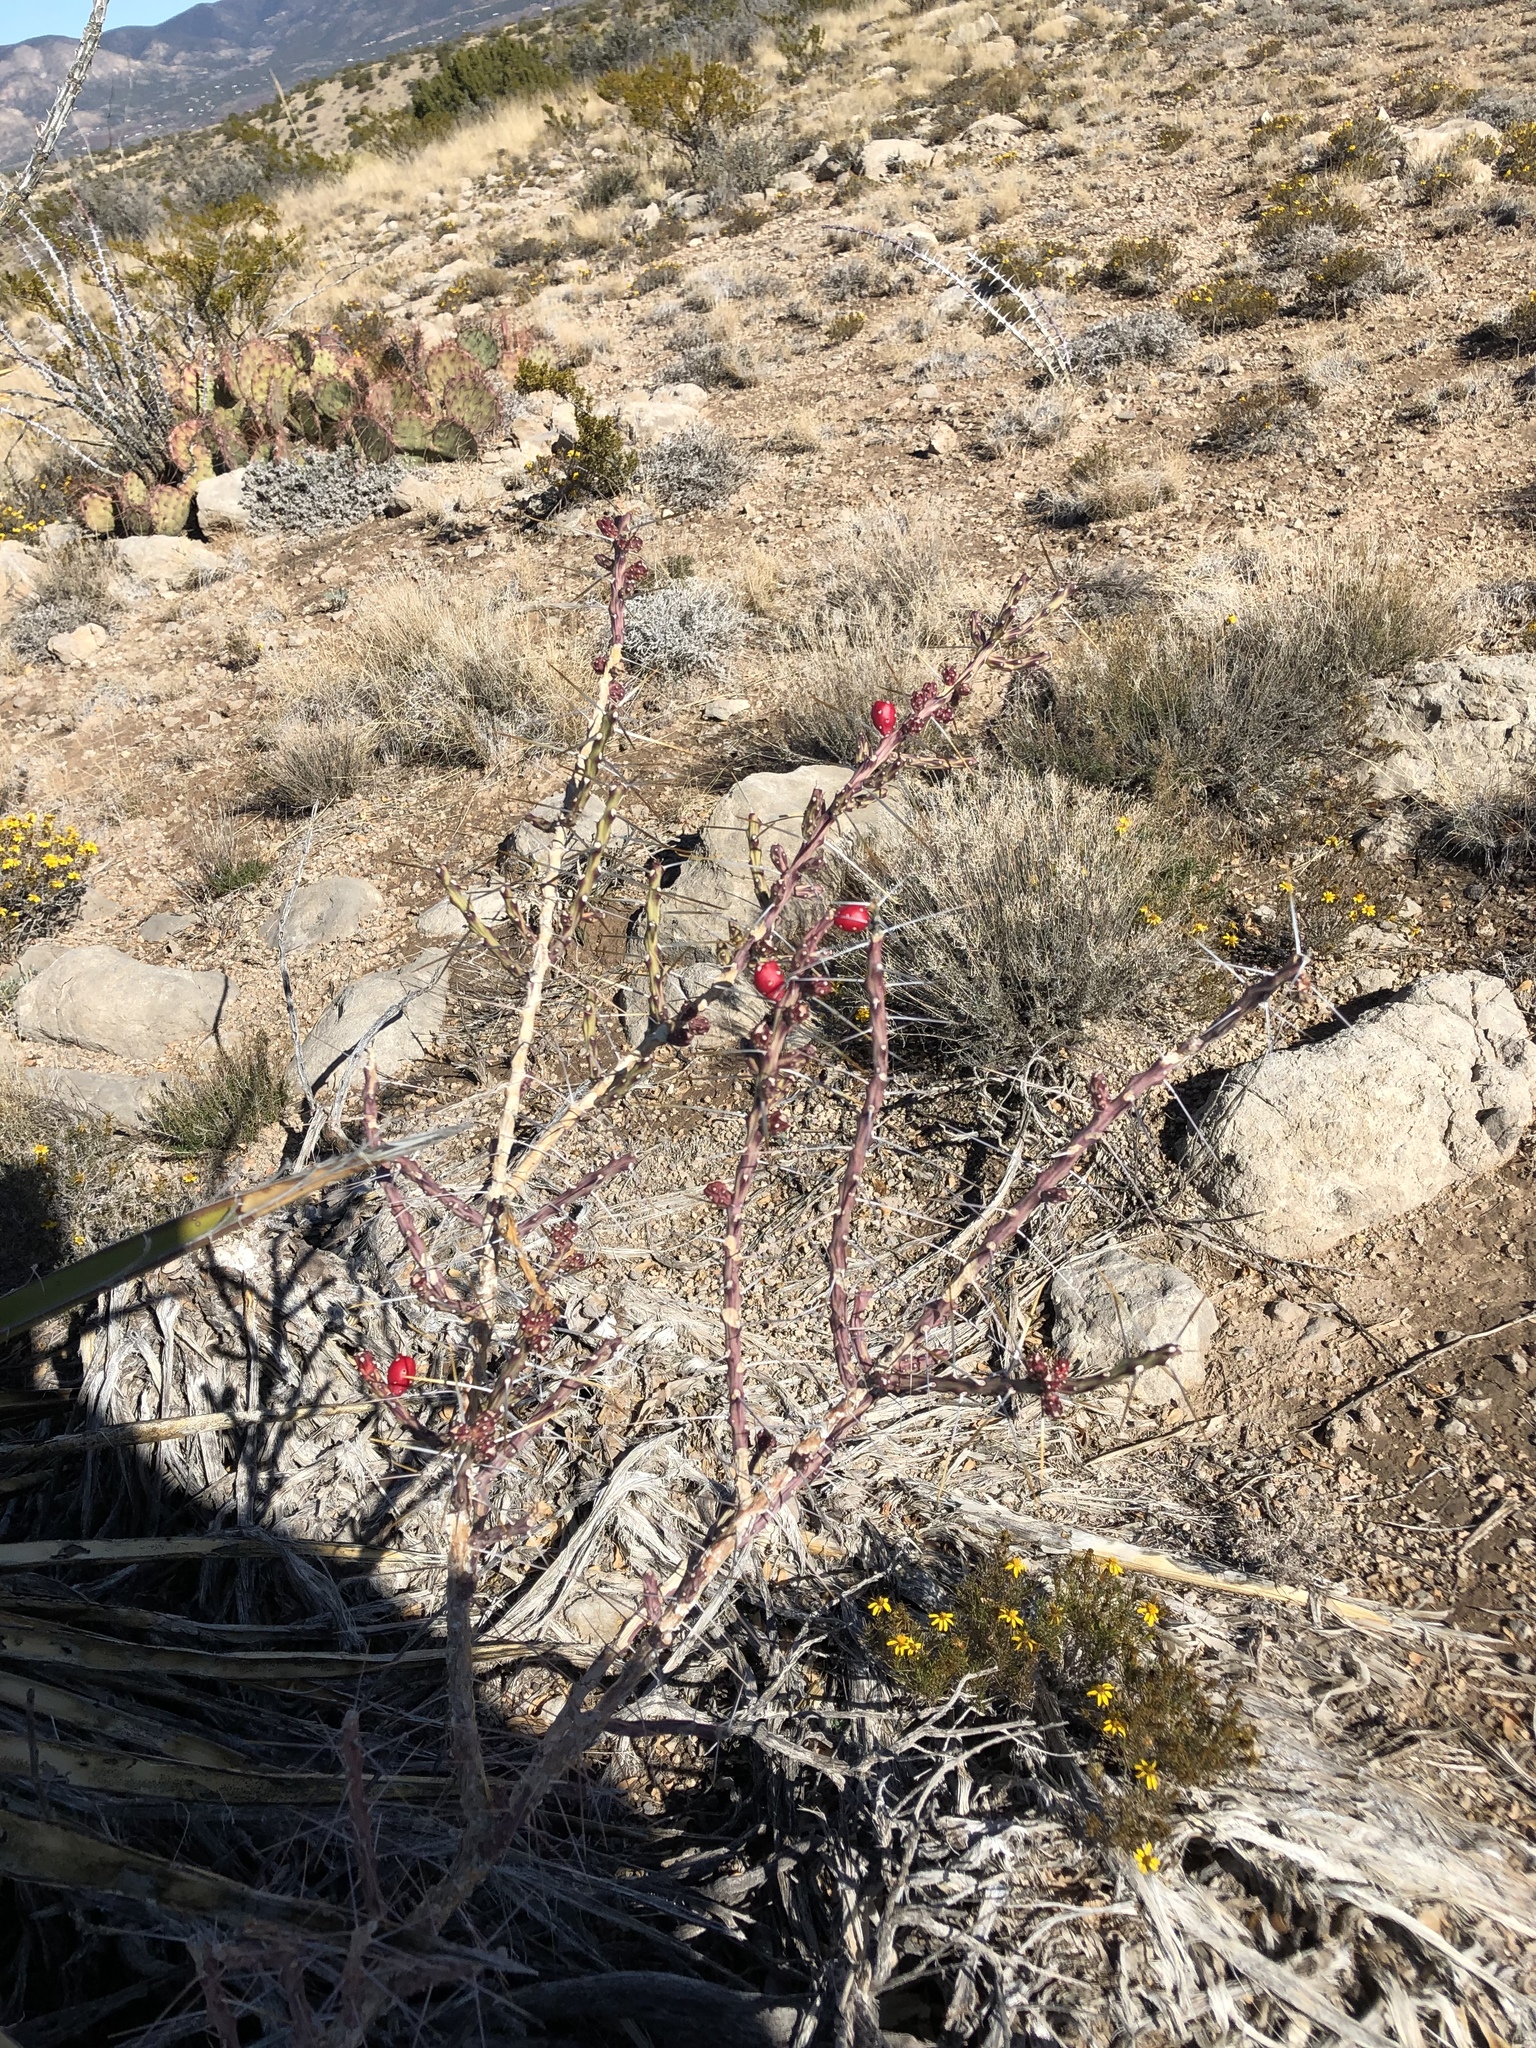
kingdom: Plantae
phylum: Tracheophyta
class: Magnoliopsida
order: Caryophyllales
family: Cactaceae
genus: Cylindropuntia
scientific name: Cylindropuntia leptocaulis
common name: Christmas cactus
